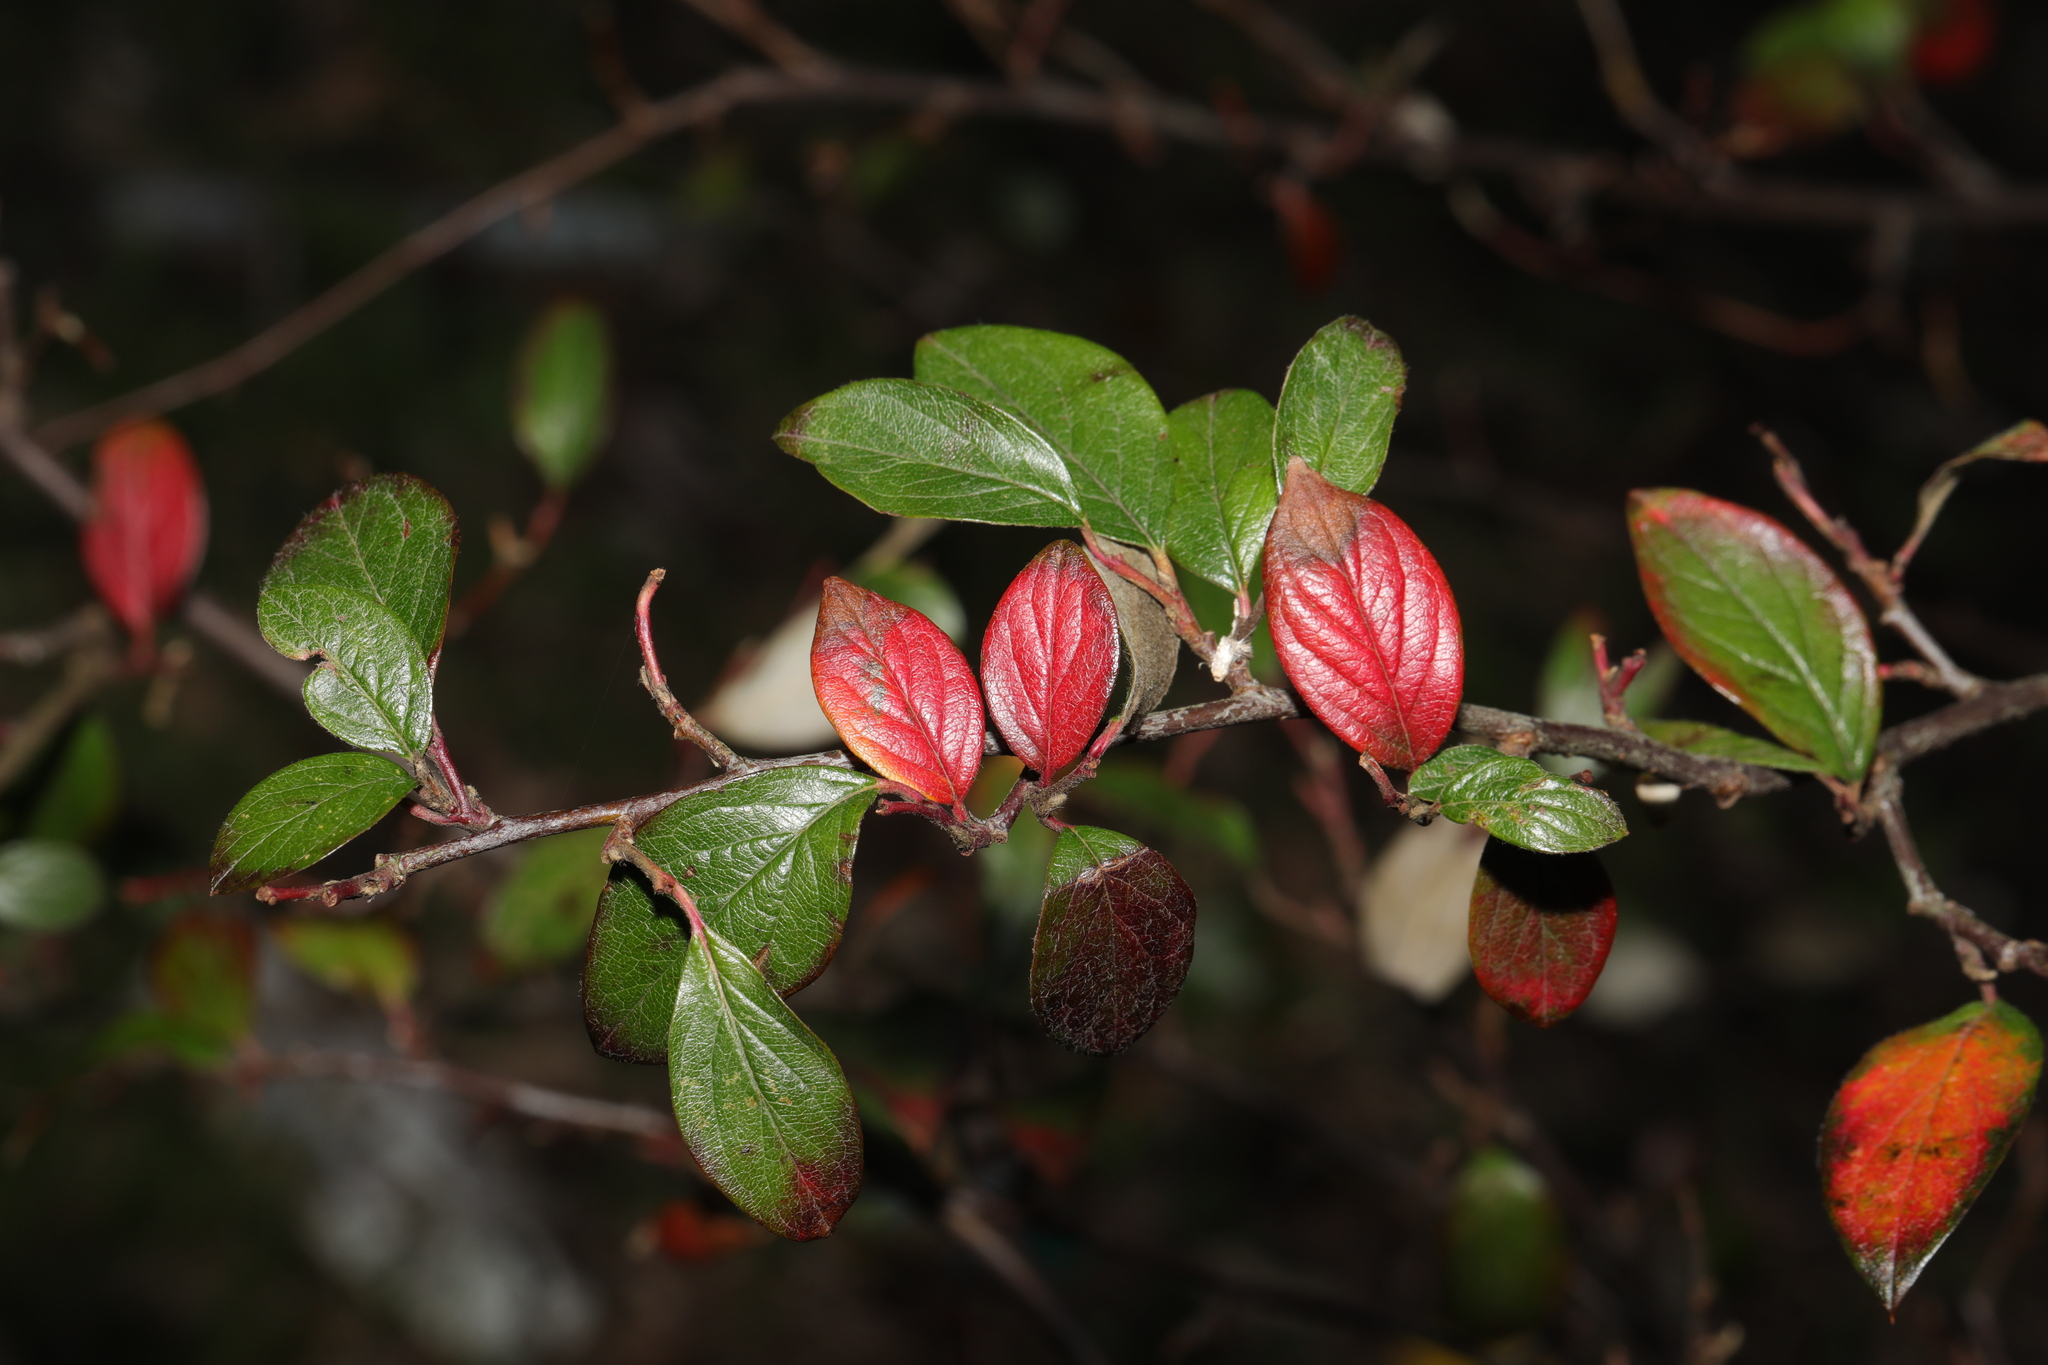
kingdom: Plantae
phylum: Tracheophyta
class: Magnoliopsida
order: Rosales
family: Rosaceae
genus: Cotoneaster
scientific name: Cotoneaster franchetii
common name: Franchet's cotoneaster
